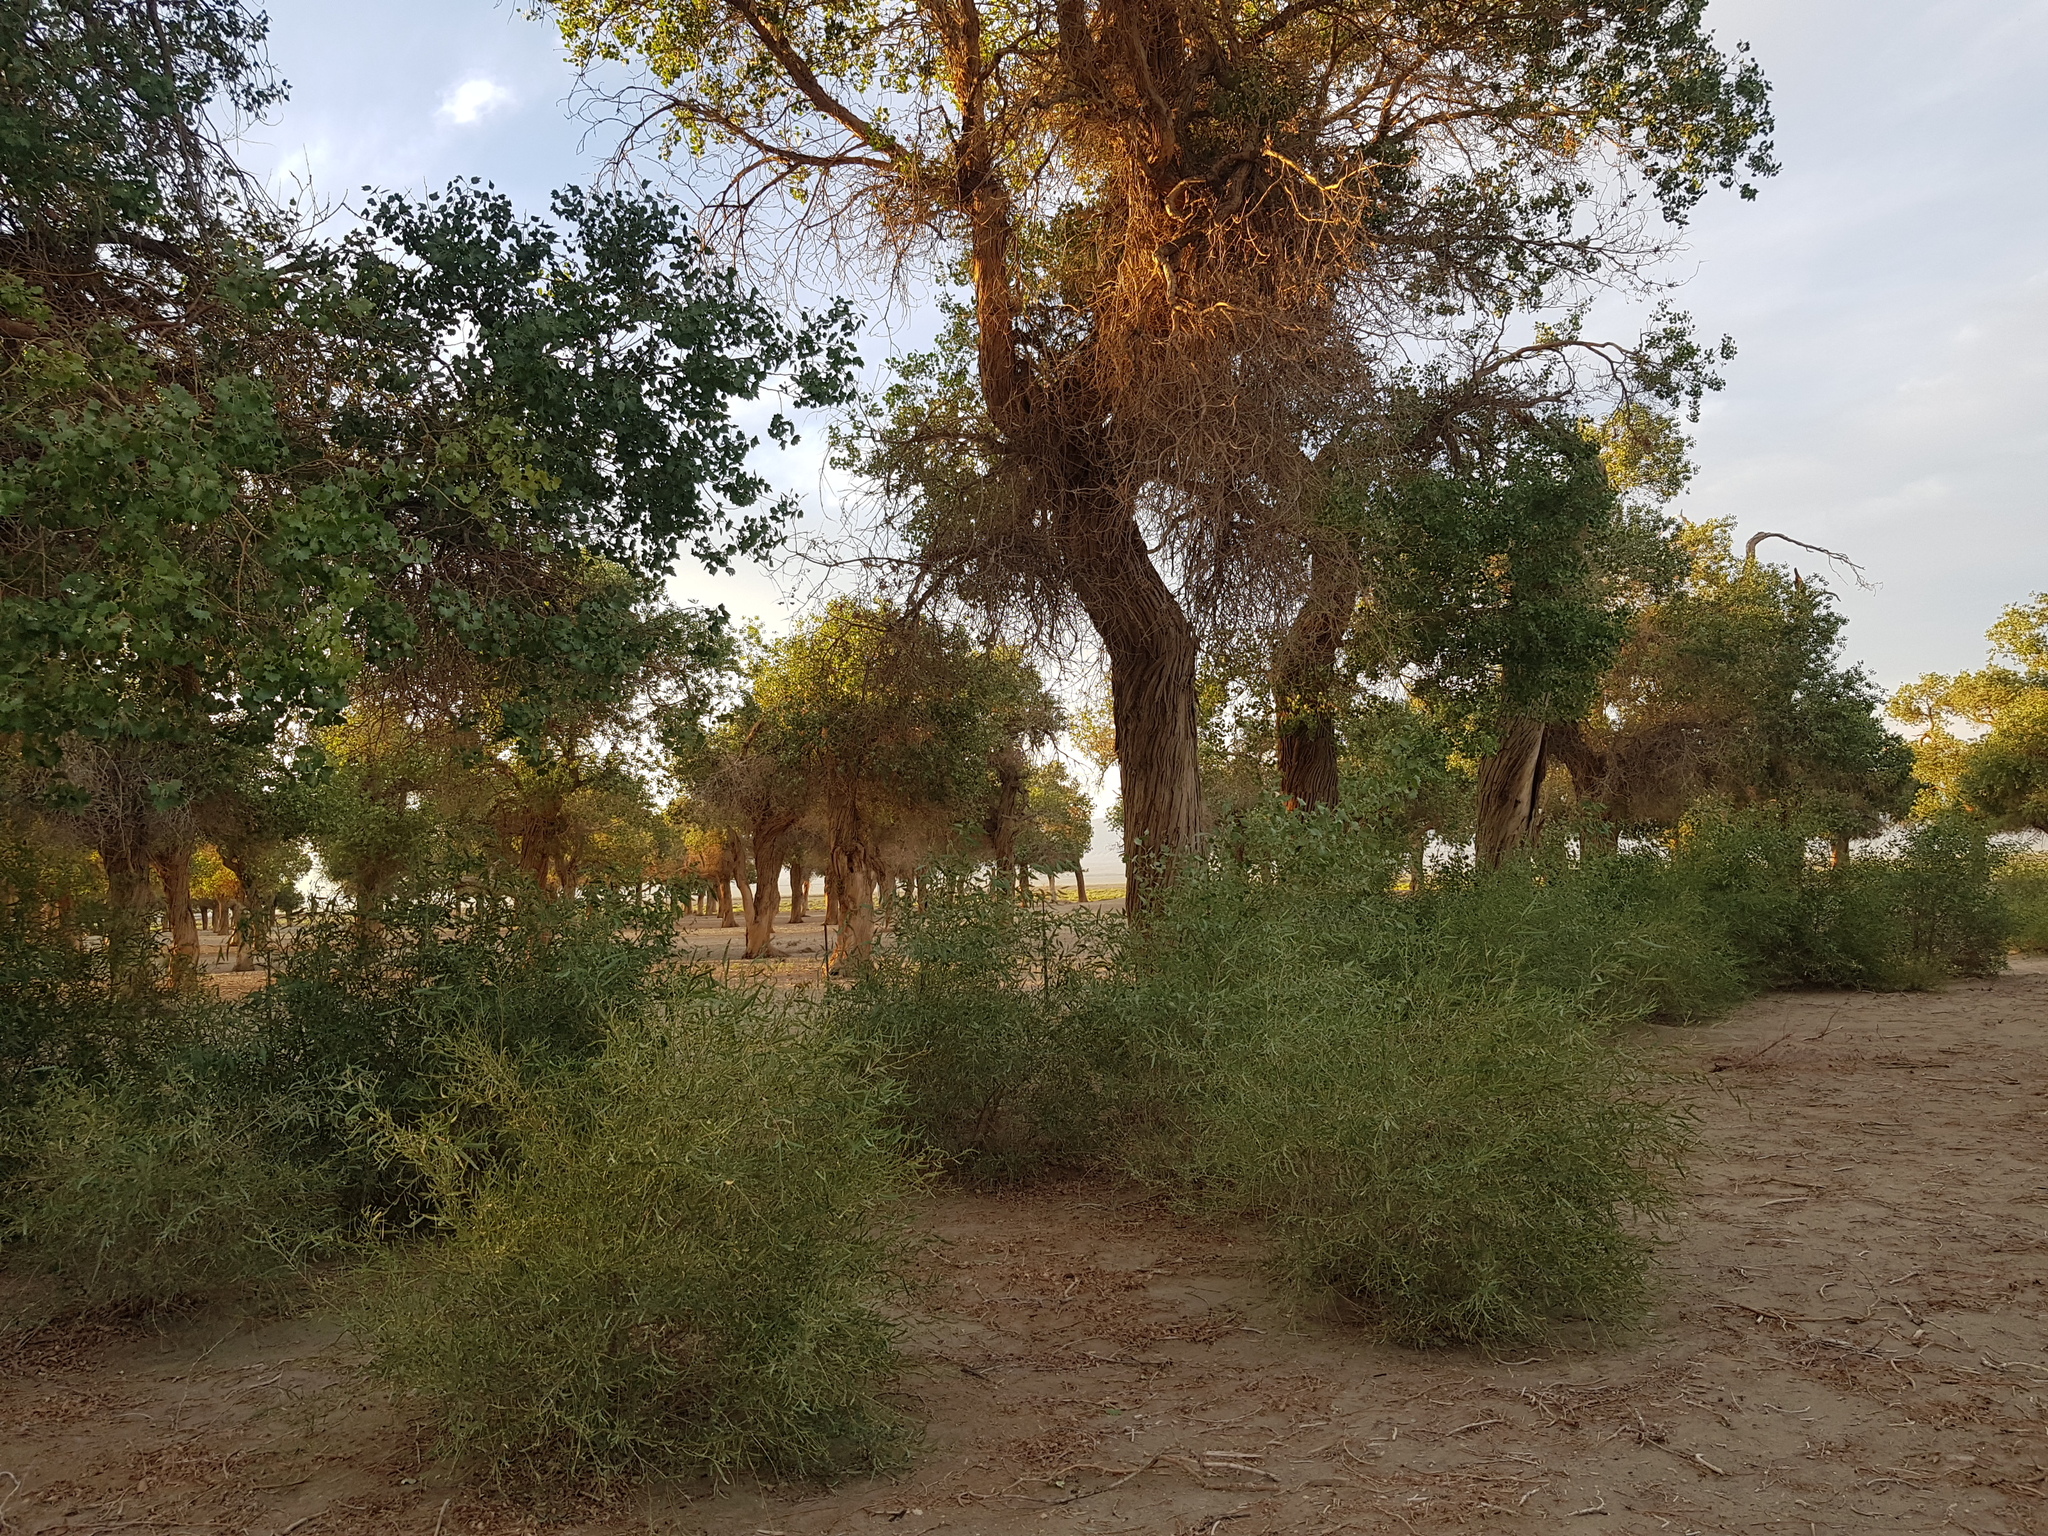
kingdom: Plantae
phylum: Tracheophyta
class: Magnoliopsida
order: Malpighiales
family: Salicaceae
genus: Populus
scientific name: Populus euphratica
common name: Euphrates poplar
